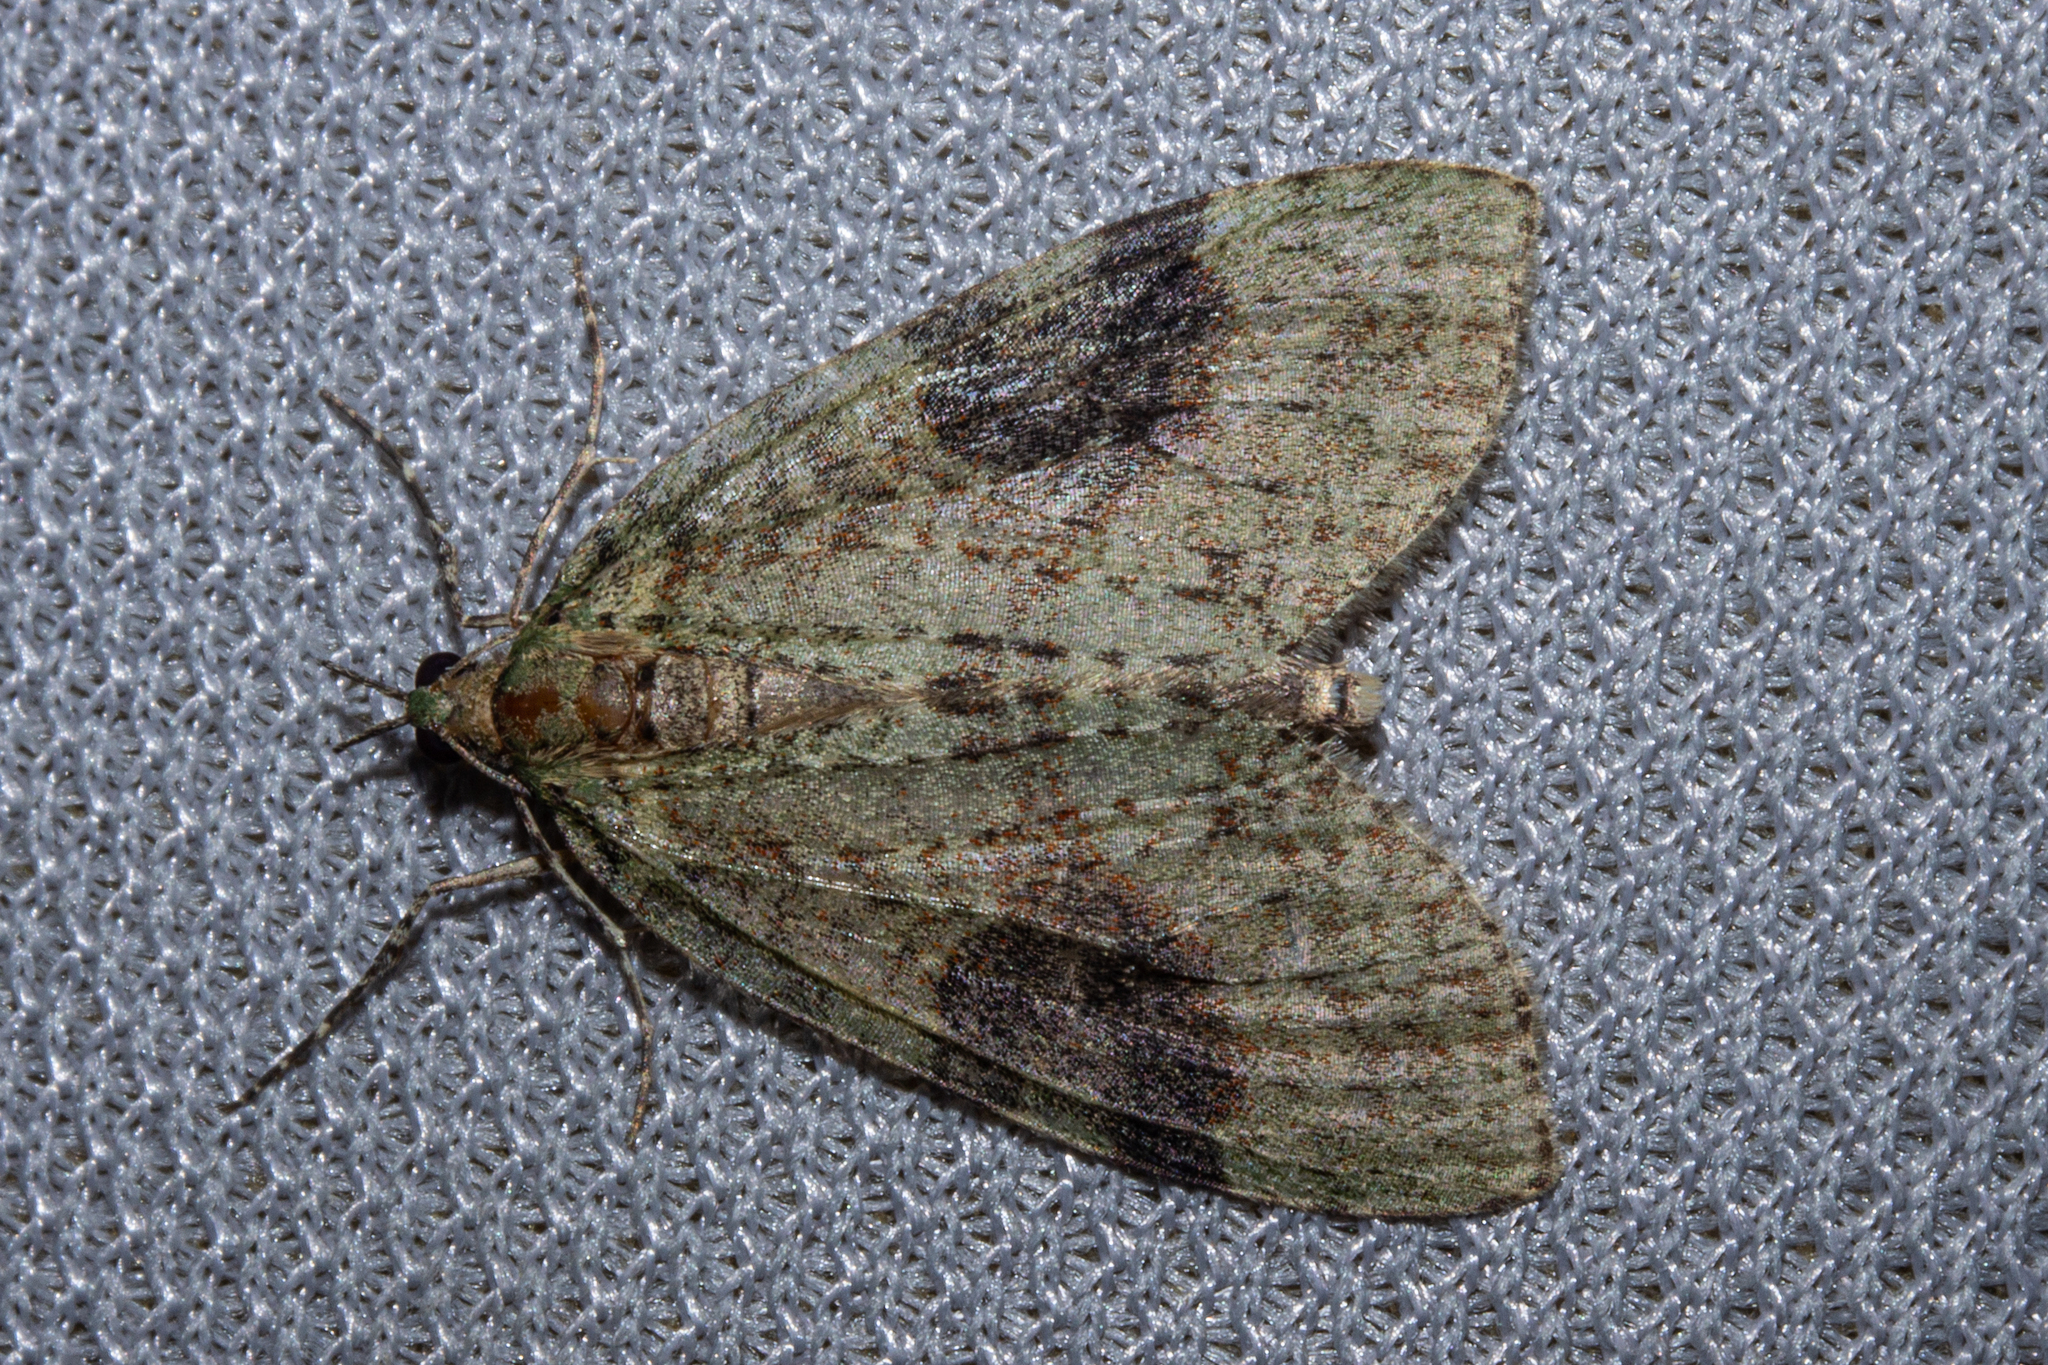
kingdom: Animalia
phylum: Arthropoda
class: Insecta
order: Lepidoptera
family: Geometridae
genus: Tatosoma
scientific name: Tatosoma transitaria
